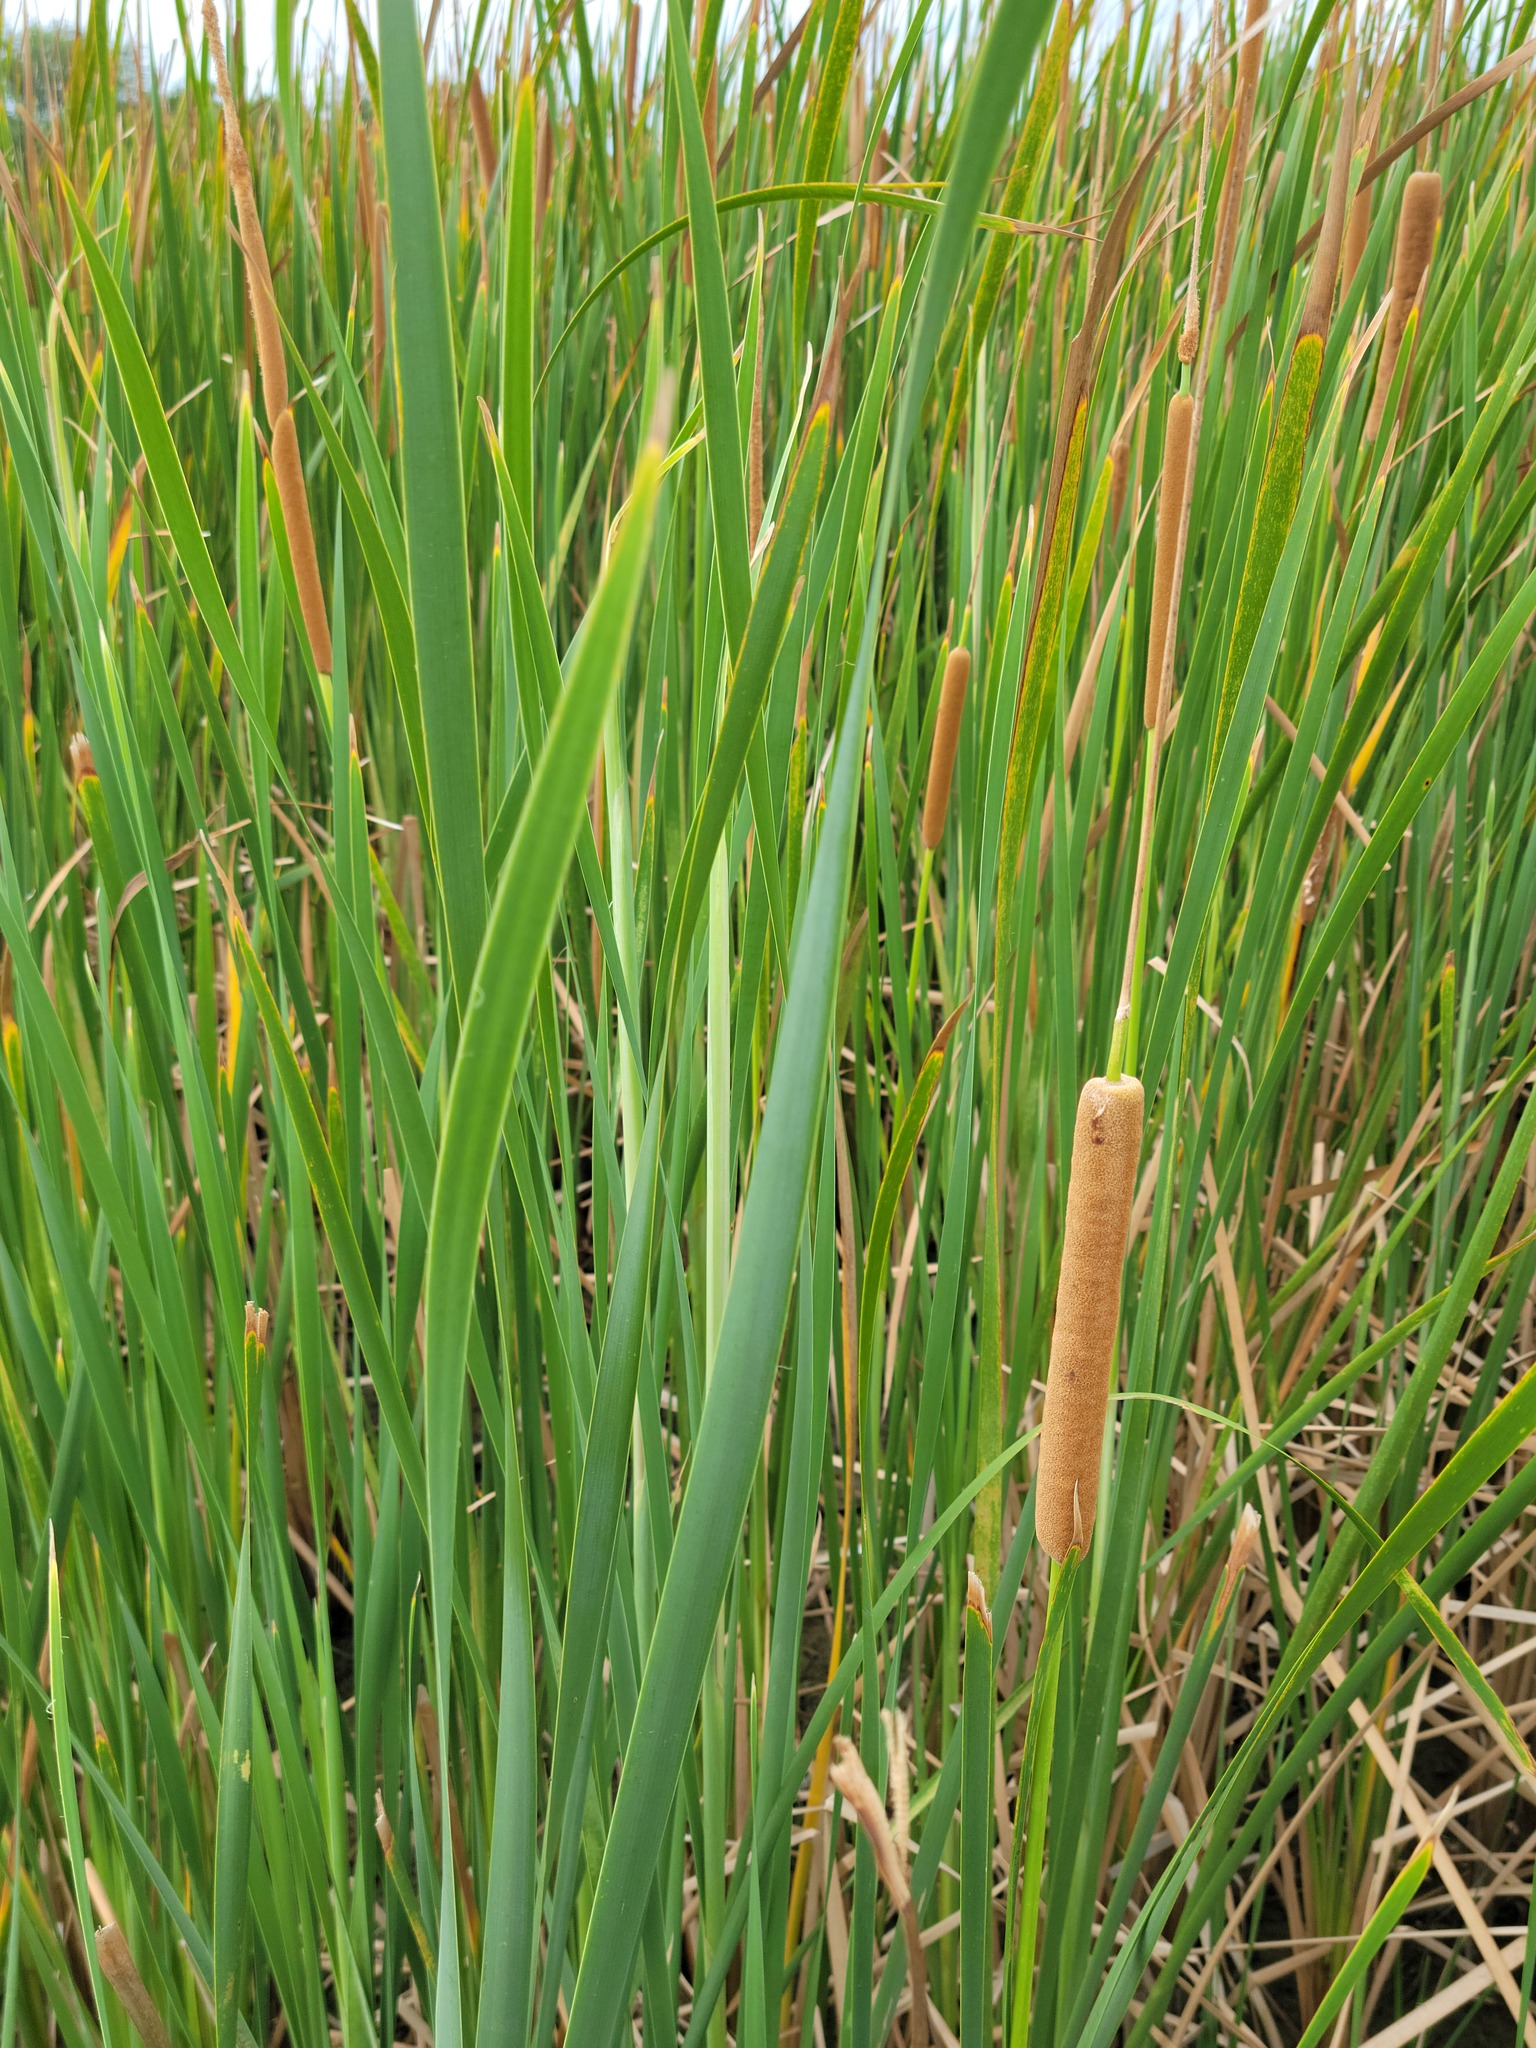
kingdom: Plantae
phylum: Tracheophyta
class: Liliopsida
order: Poales
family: Typhaceae
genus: Typha
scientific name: Typha domingensis
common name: Southern cattail
